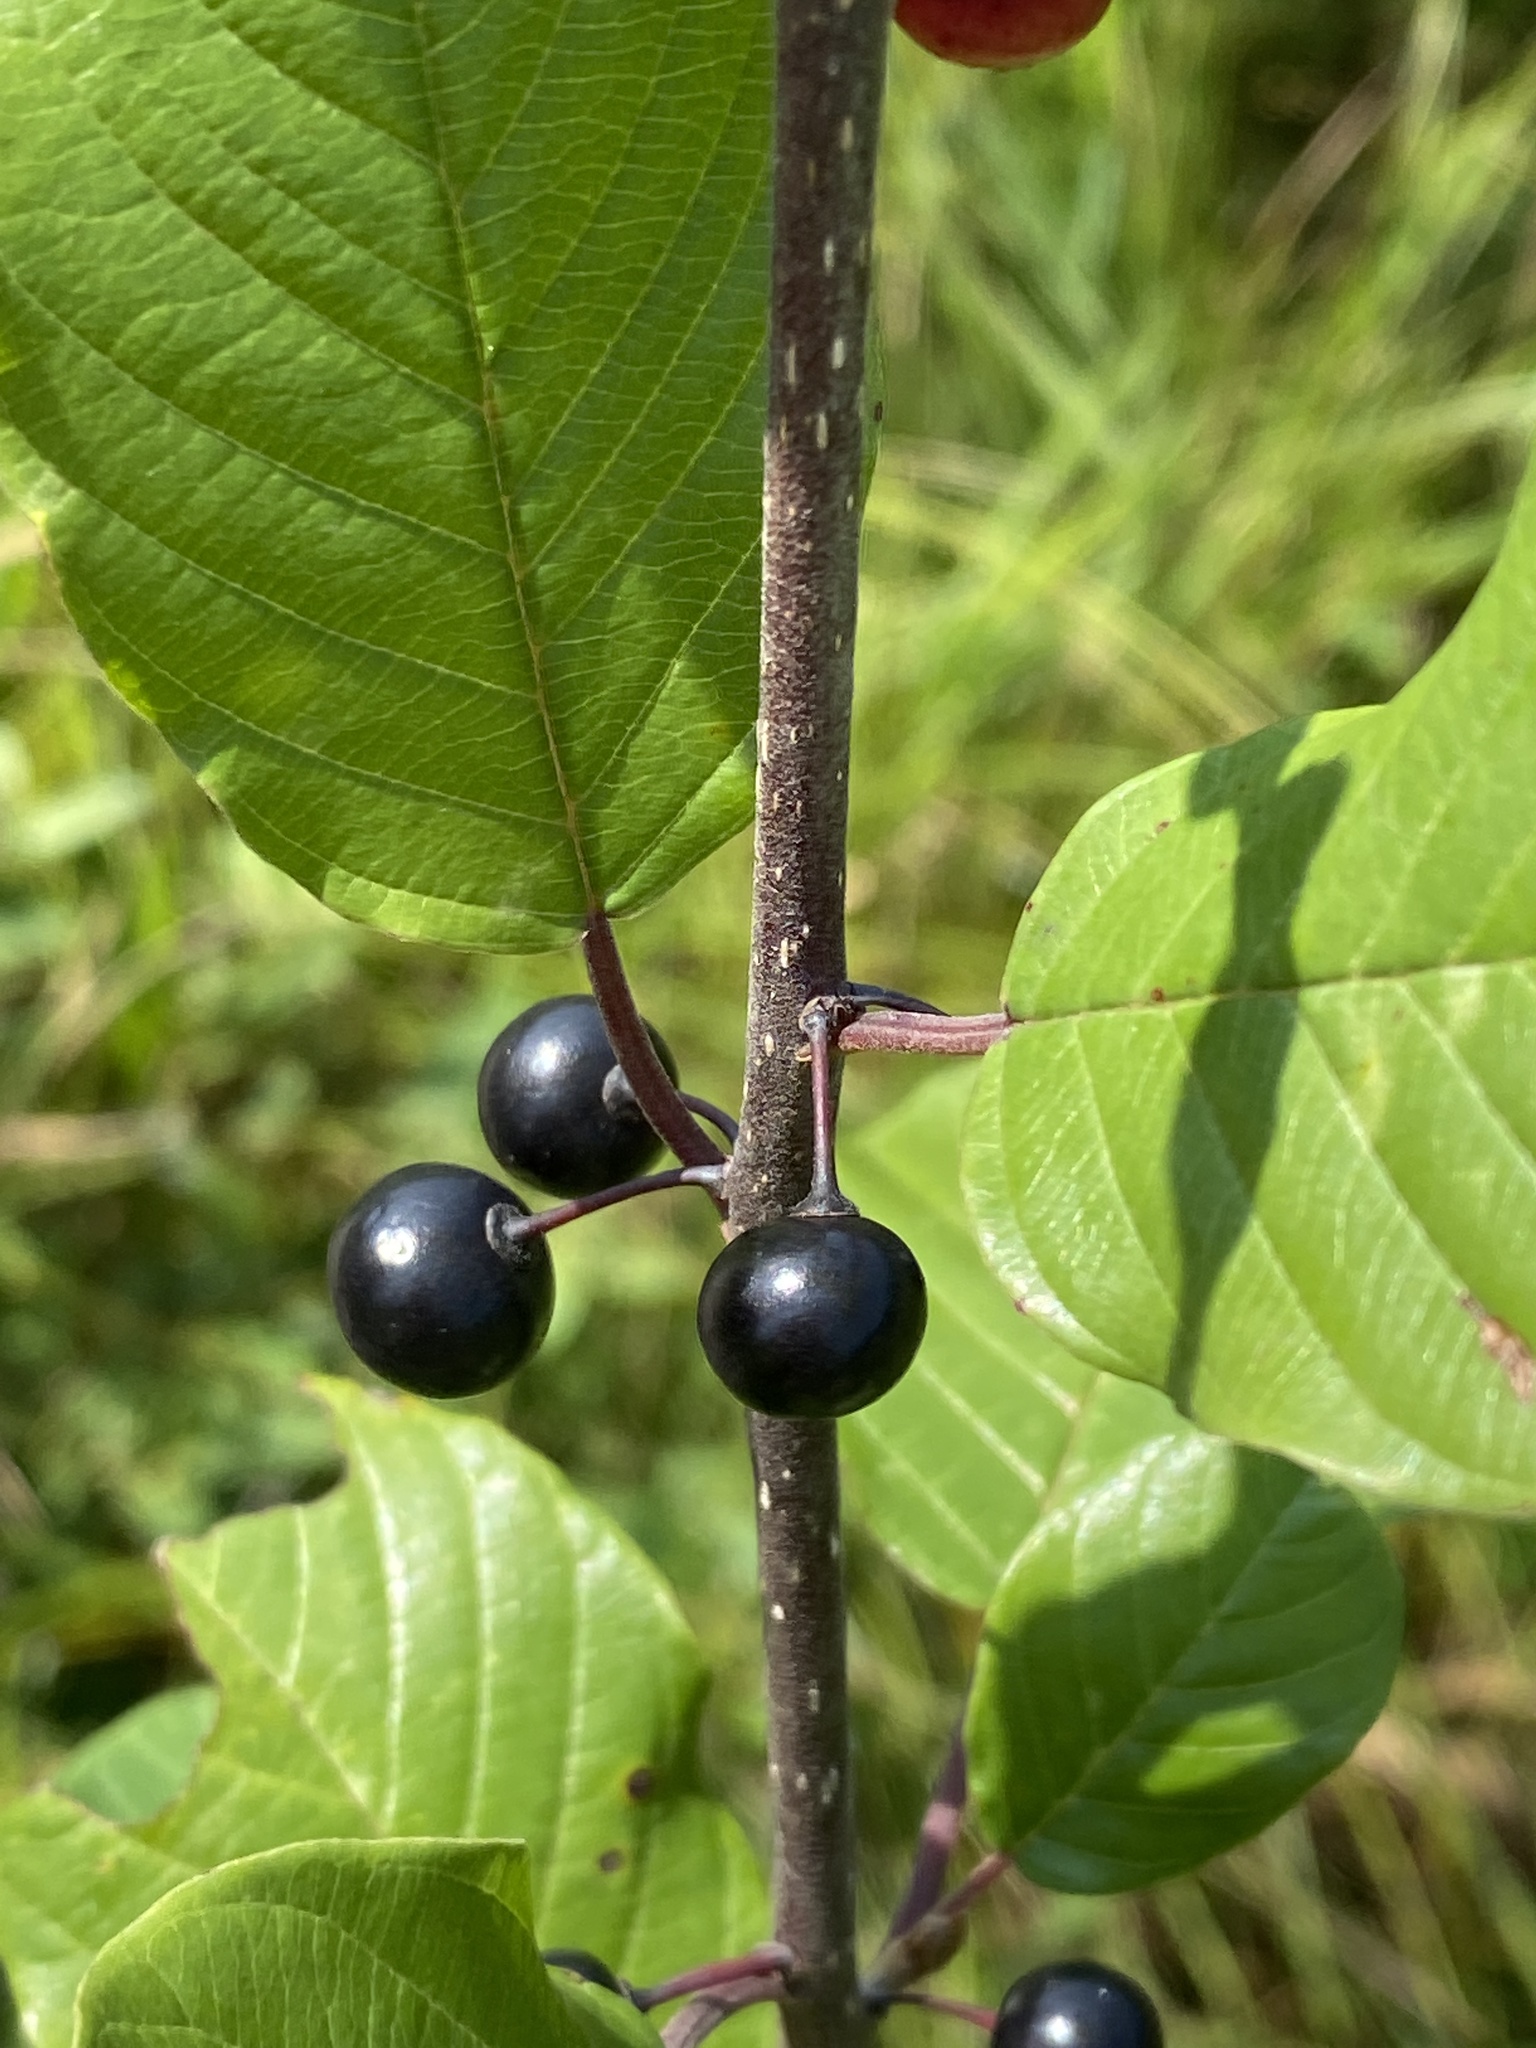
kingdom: Plantae
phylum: Tracheophyta
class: Magnoliopsida
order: Rosales
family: Rhamnaceae
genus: Frangula
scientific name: Frangula alnus
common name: Alder buckthorn
